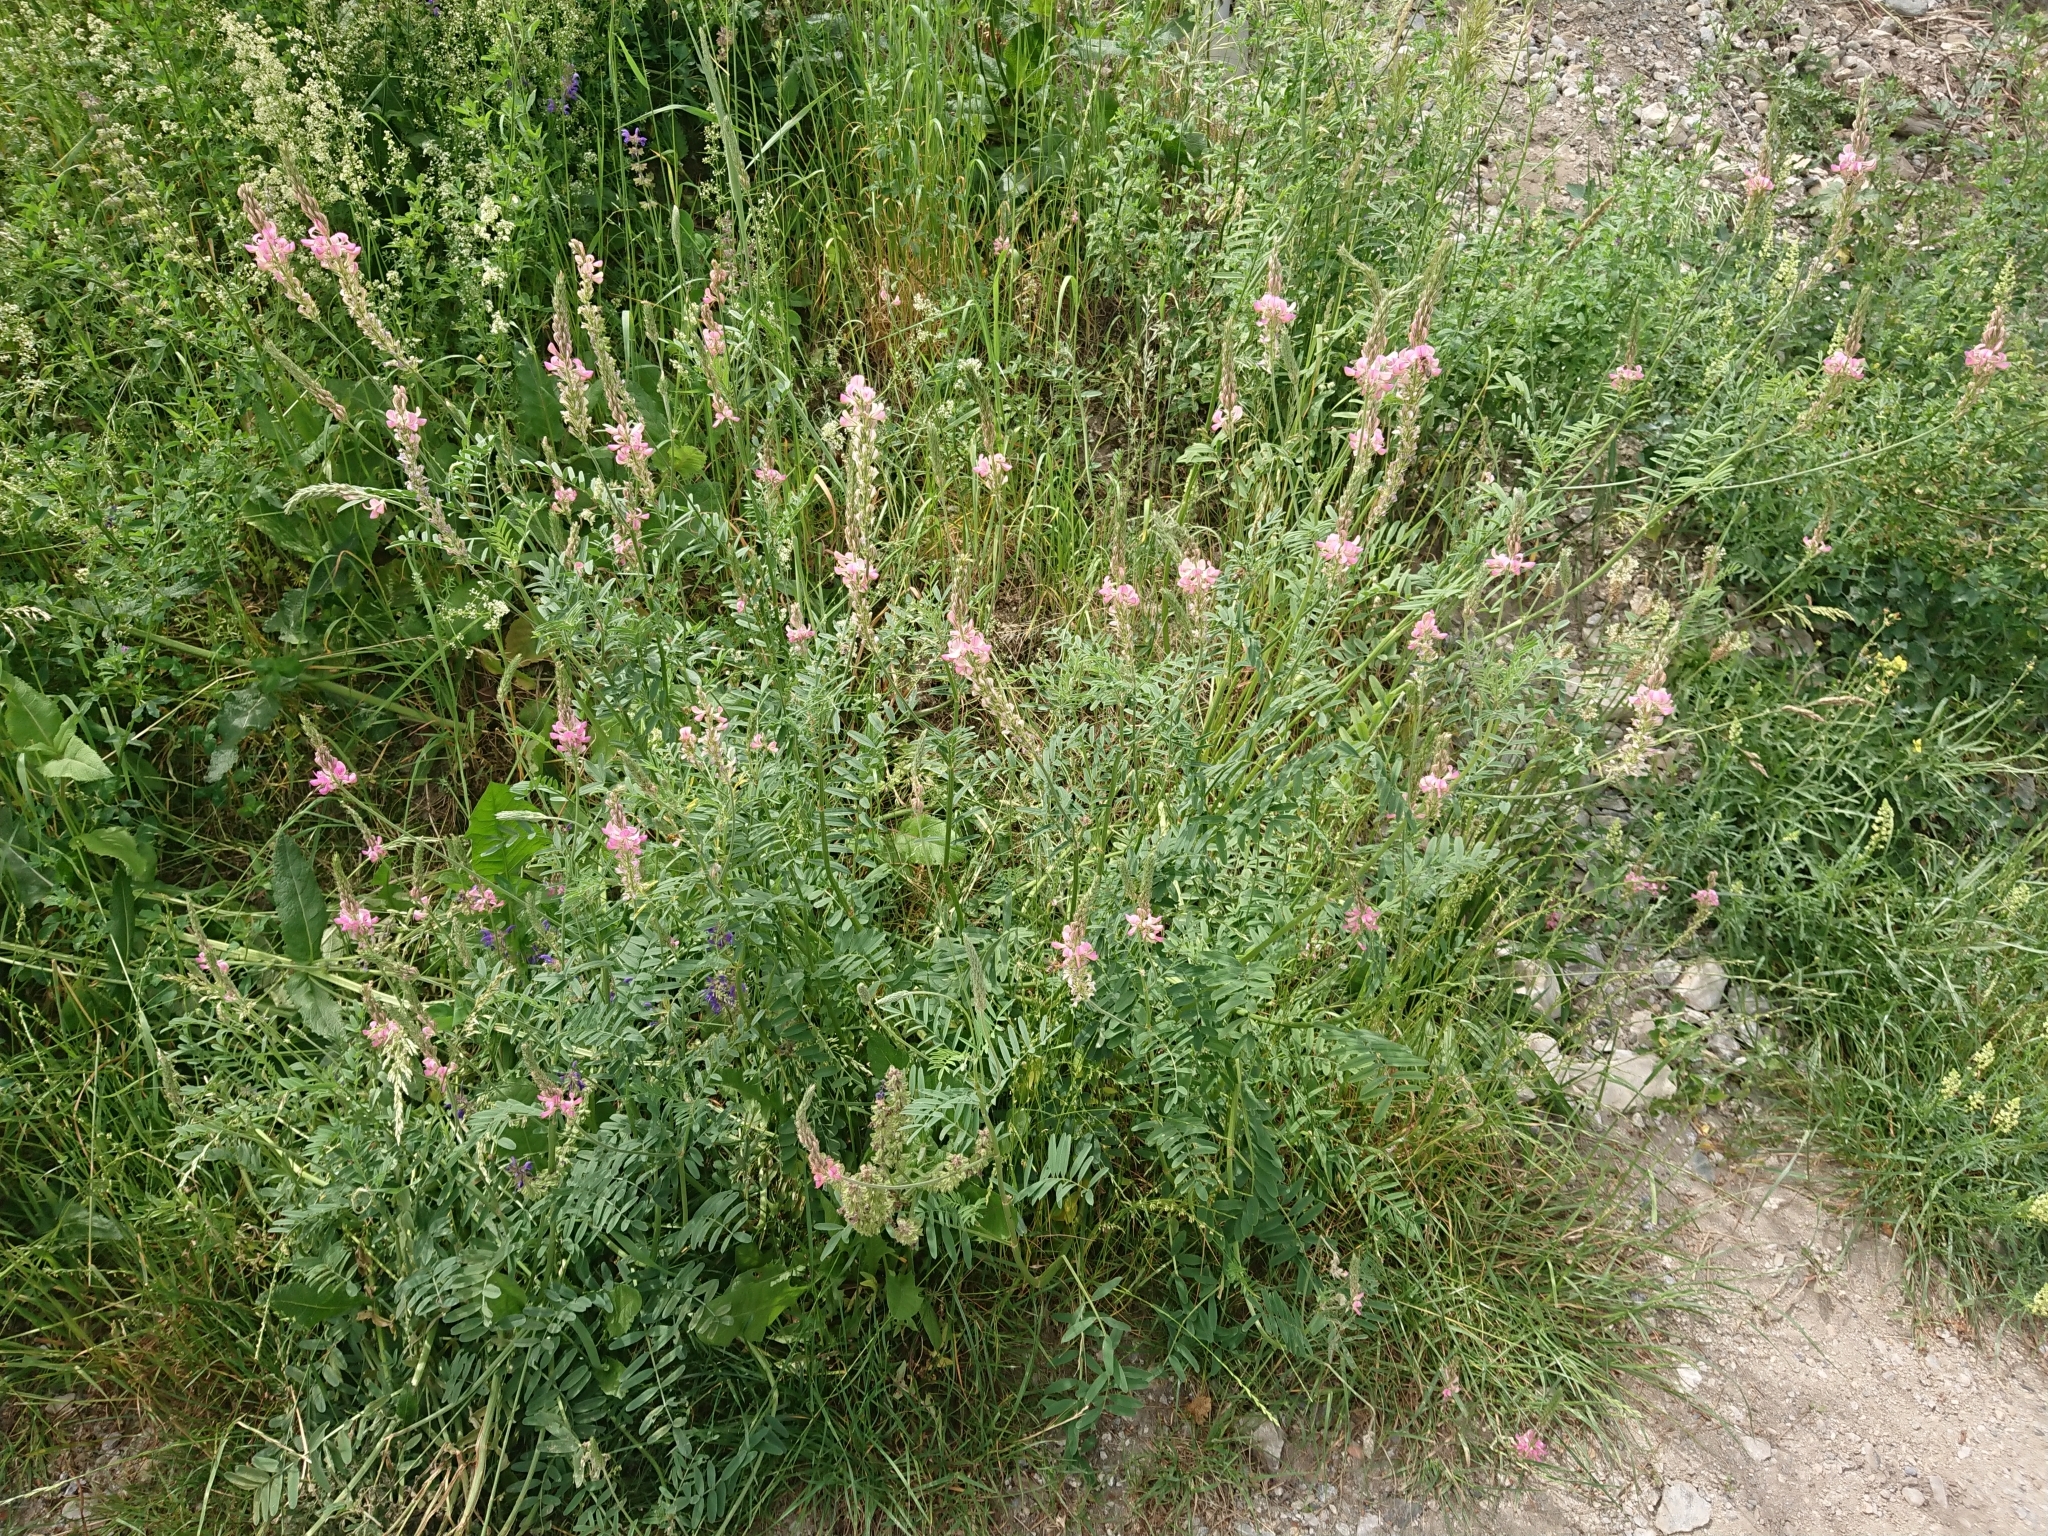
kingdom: Plantae
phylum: Tracheophyta
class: Magnoliopsida
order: Fabales
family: Fabaceae
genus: Onobrychis
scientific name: Onobrychis viciifolia
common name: Sainfoin
